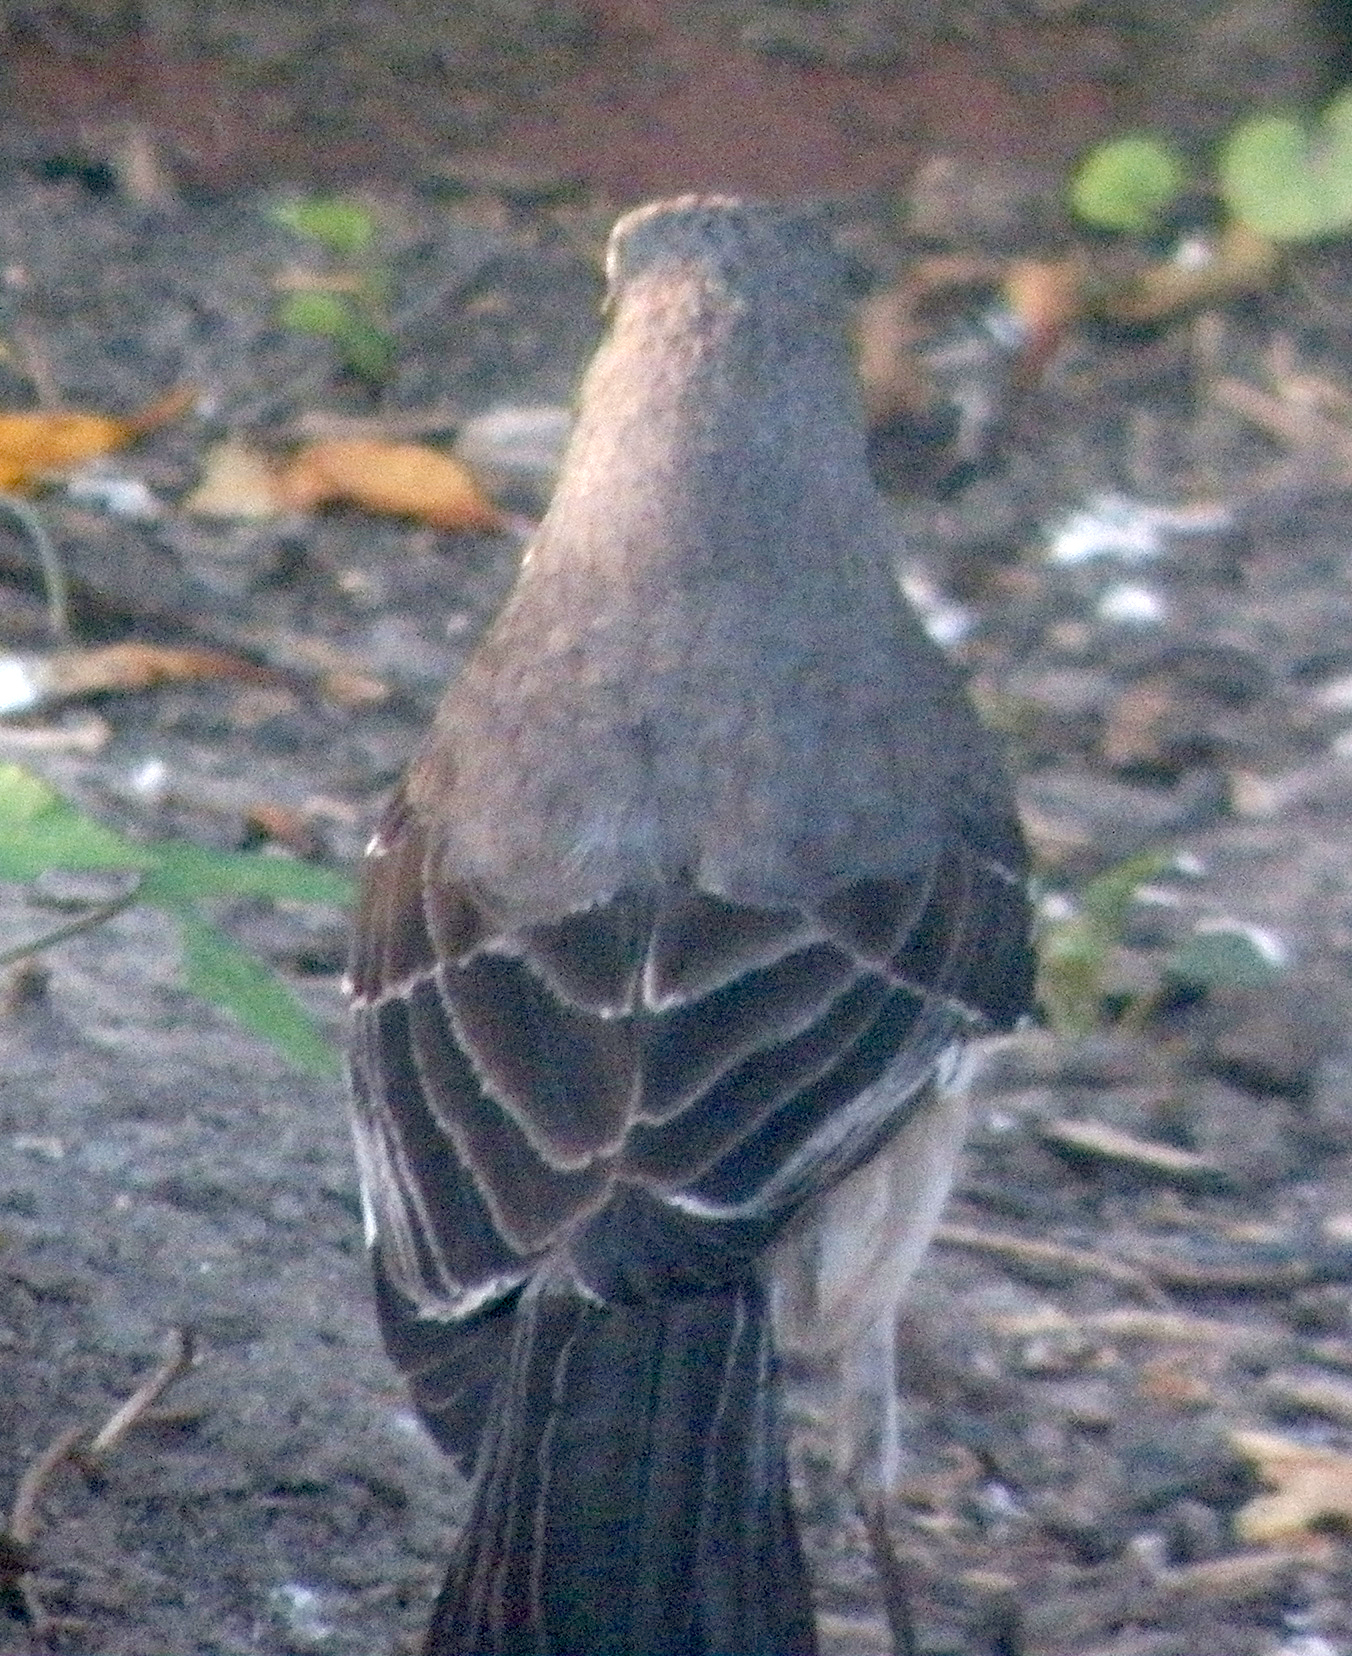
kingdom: Animalia
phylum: Chordata
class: Aves
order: Passeriformes
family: Mimidae
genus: Mimus
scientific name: Mimus polyglottos
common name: Northern mockingbird
